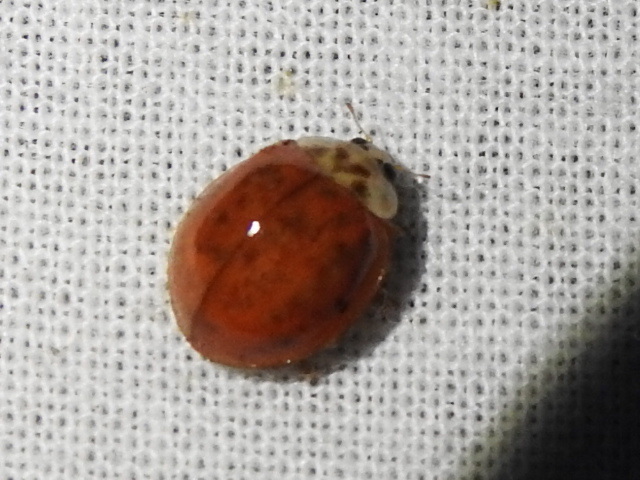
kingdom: Animalia
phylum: Arthropoda
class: Insecta
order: Coleoptera
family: Coccinellidae
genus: Harmonia
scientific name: Harmonia axyridis
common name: Harlequin ladybird
